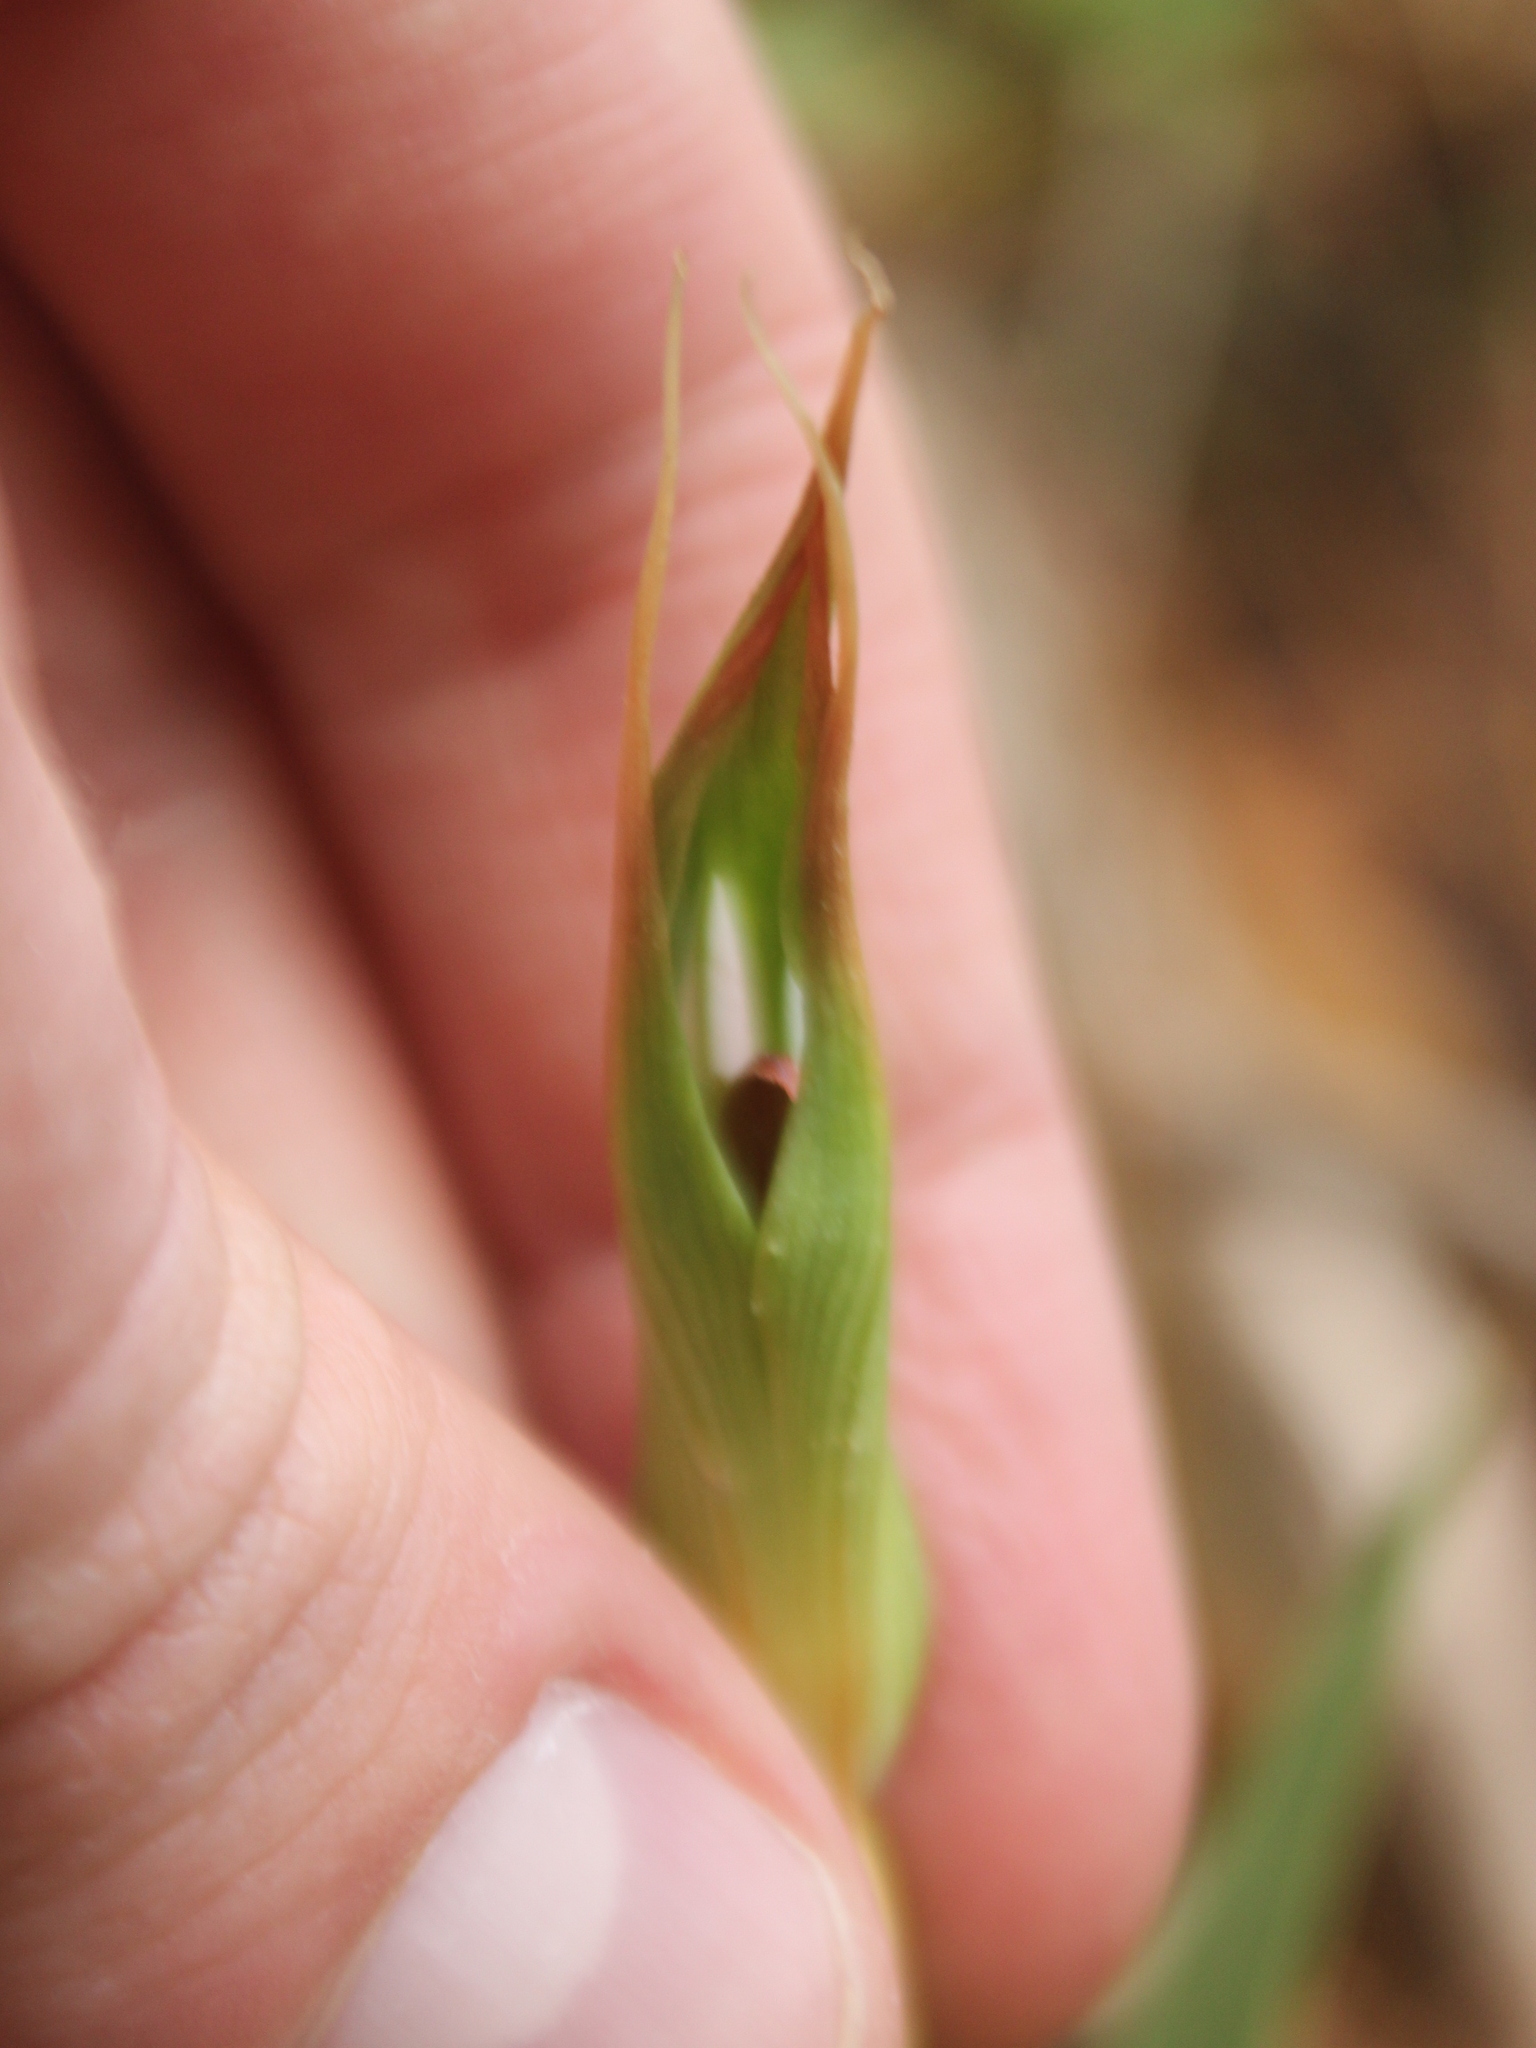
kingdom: Plantae
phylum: Tracheophyta
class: Liliopsida
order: Asparagales
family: Orchidaceae
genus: Pterostylis
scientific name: Pterostylis cardiostigma
